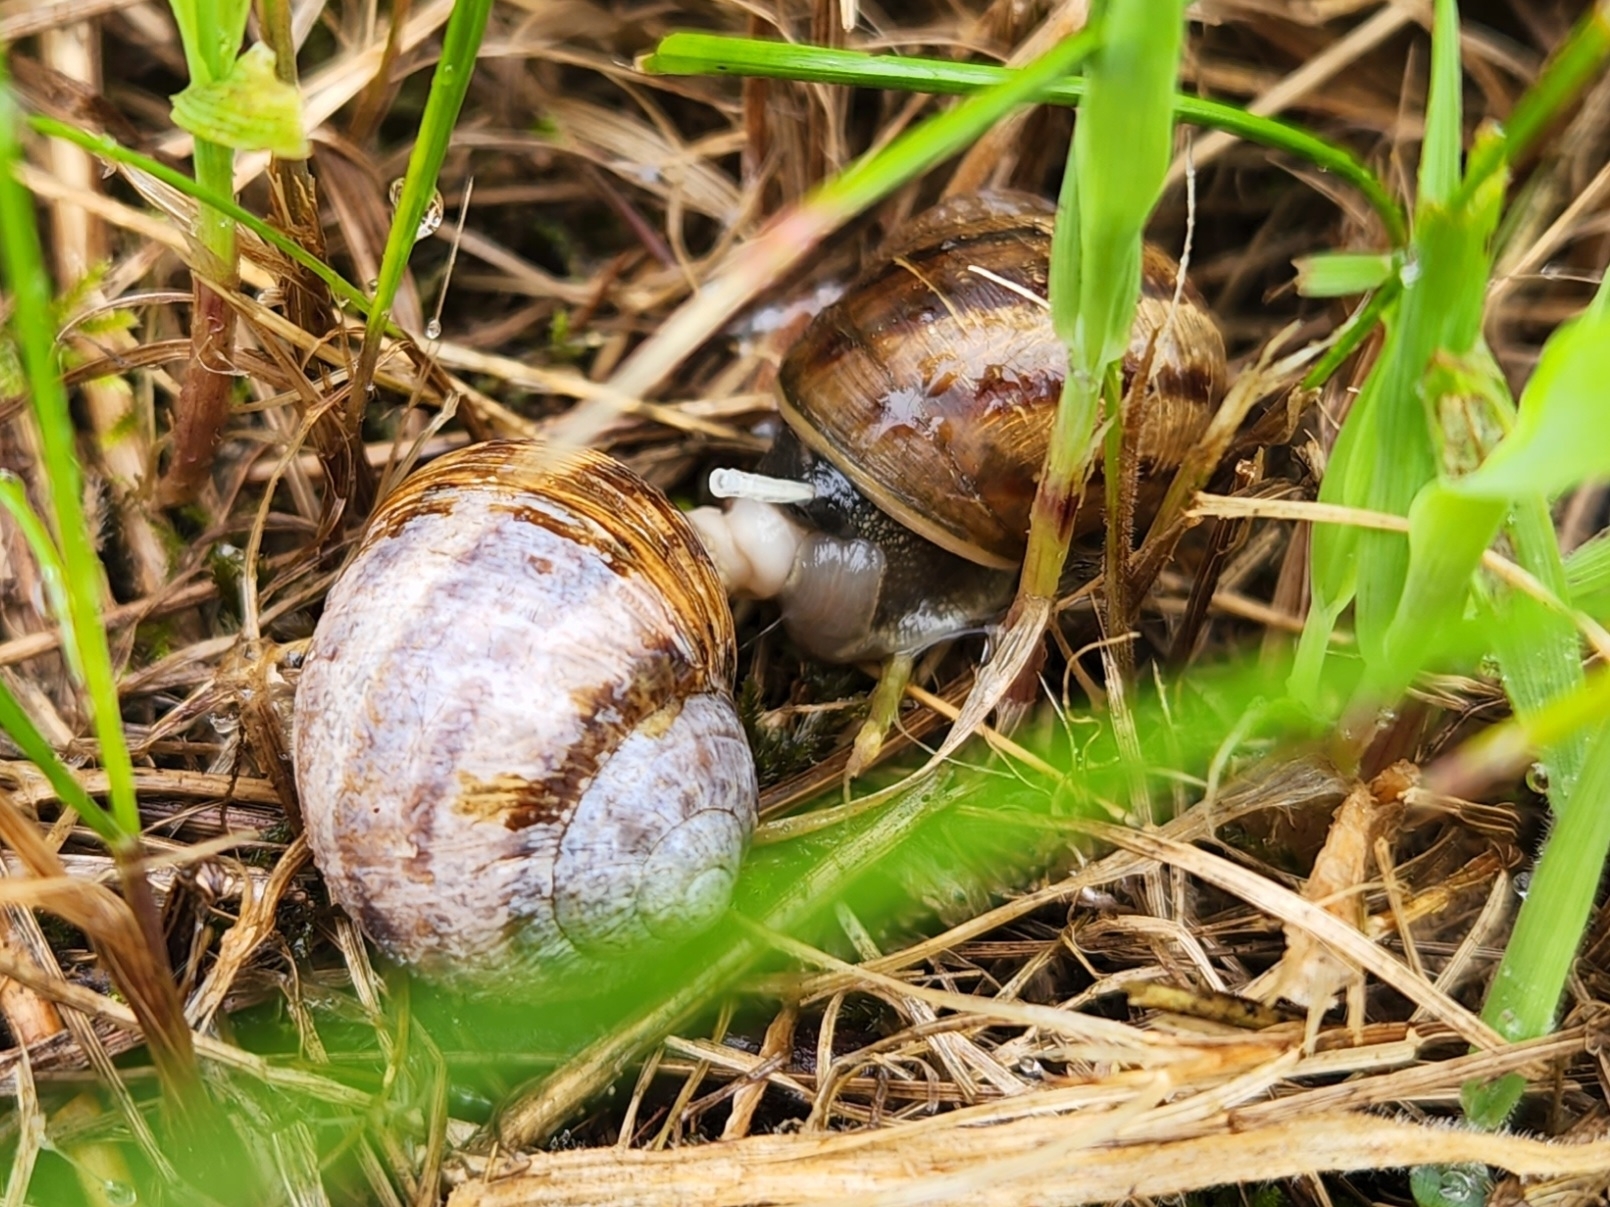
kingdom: Animalia
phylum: Mollusca
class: Gastropoda
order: Stylommatophora
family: Helicidae
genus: Cornu
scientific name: Cornu aspersum
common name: Brown garden snail
